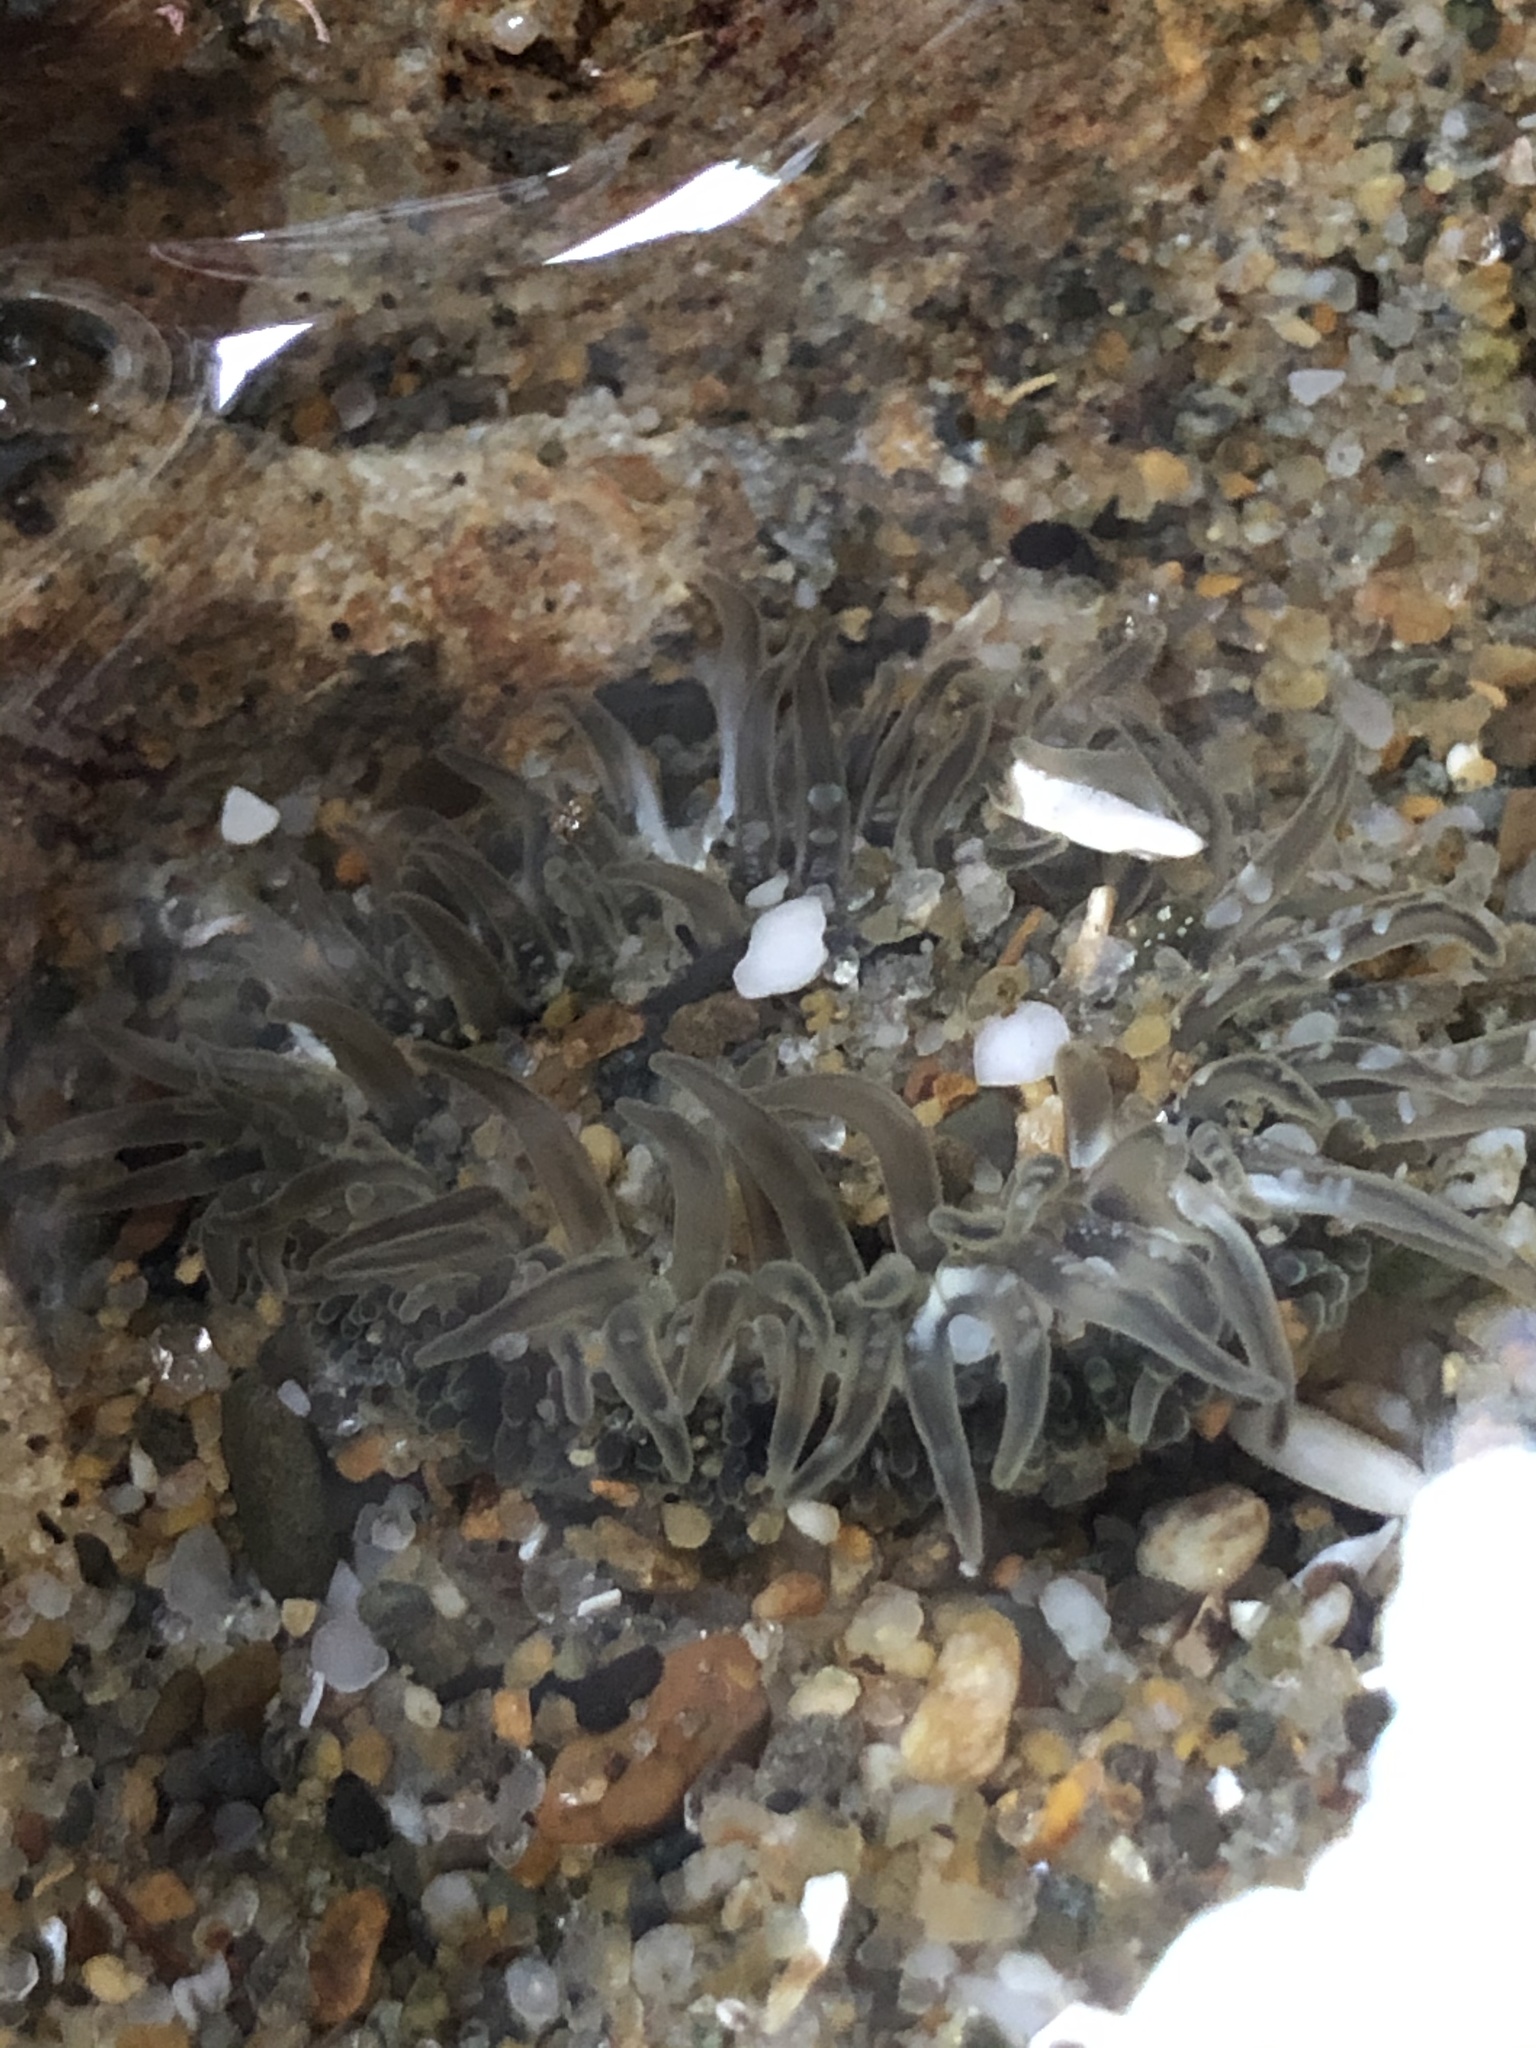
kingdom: Animalia
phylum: Cnidaria
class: Anthozoa
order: Actiniaria
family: Actiniidae
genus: Anthopleura
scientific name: Anthopleura artemisia
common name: Buried sea anemone
